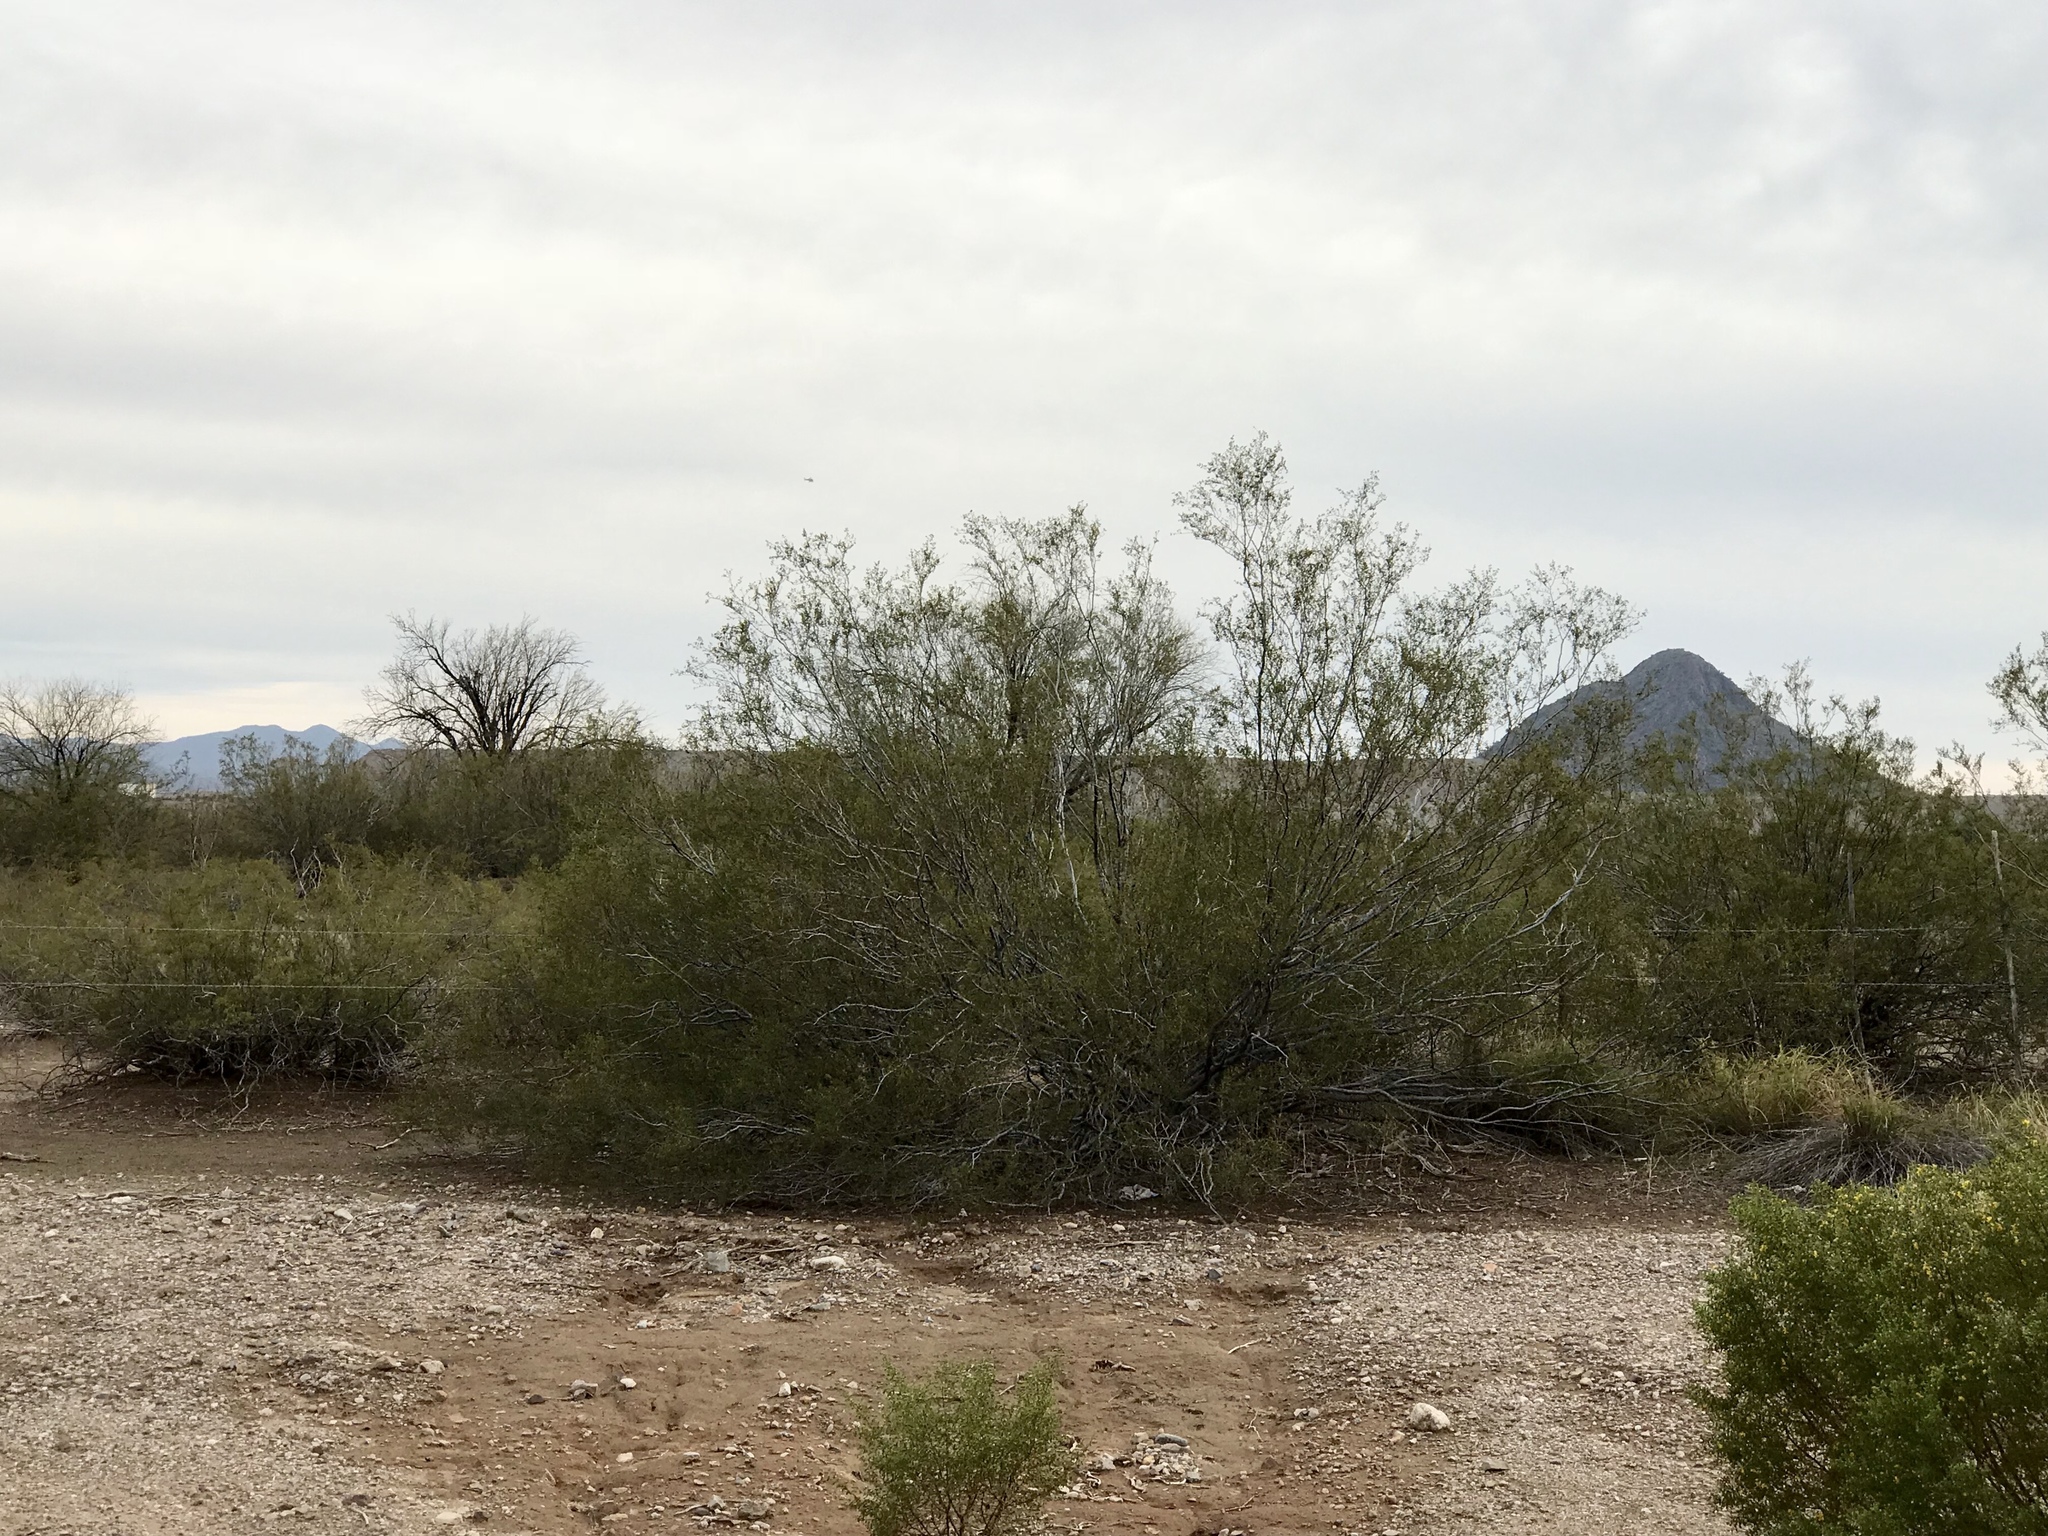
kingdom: Plantae
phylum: Tracheophyta
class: Magnoliopsida
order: Zygophyllales
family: Zygophyllaceae
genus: Larrea
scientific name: Larrea tridentata
